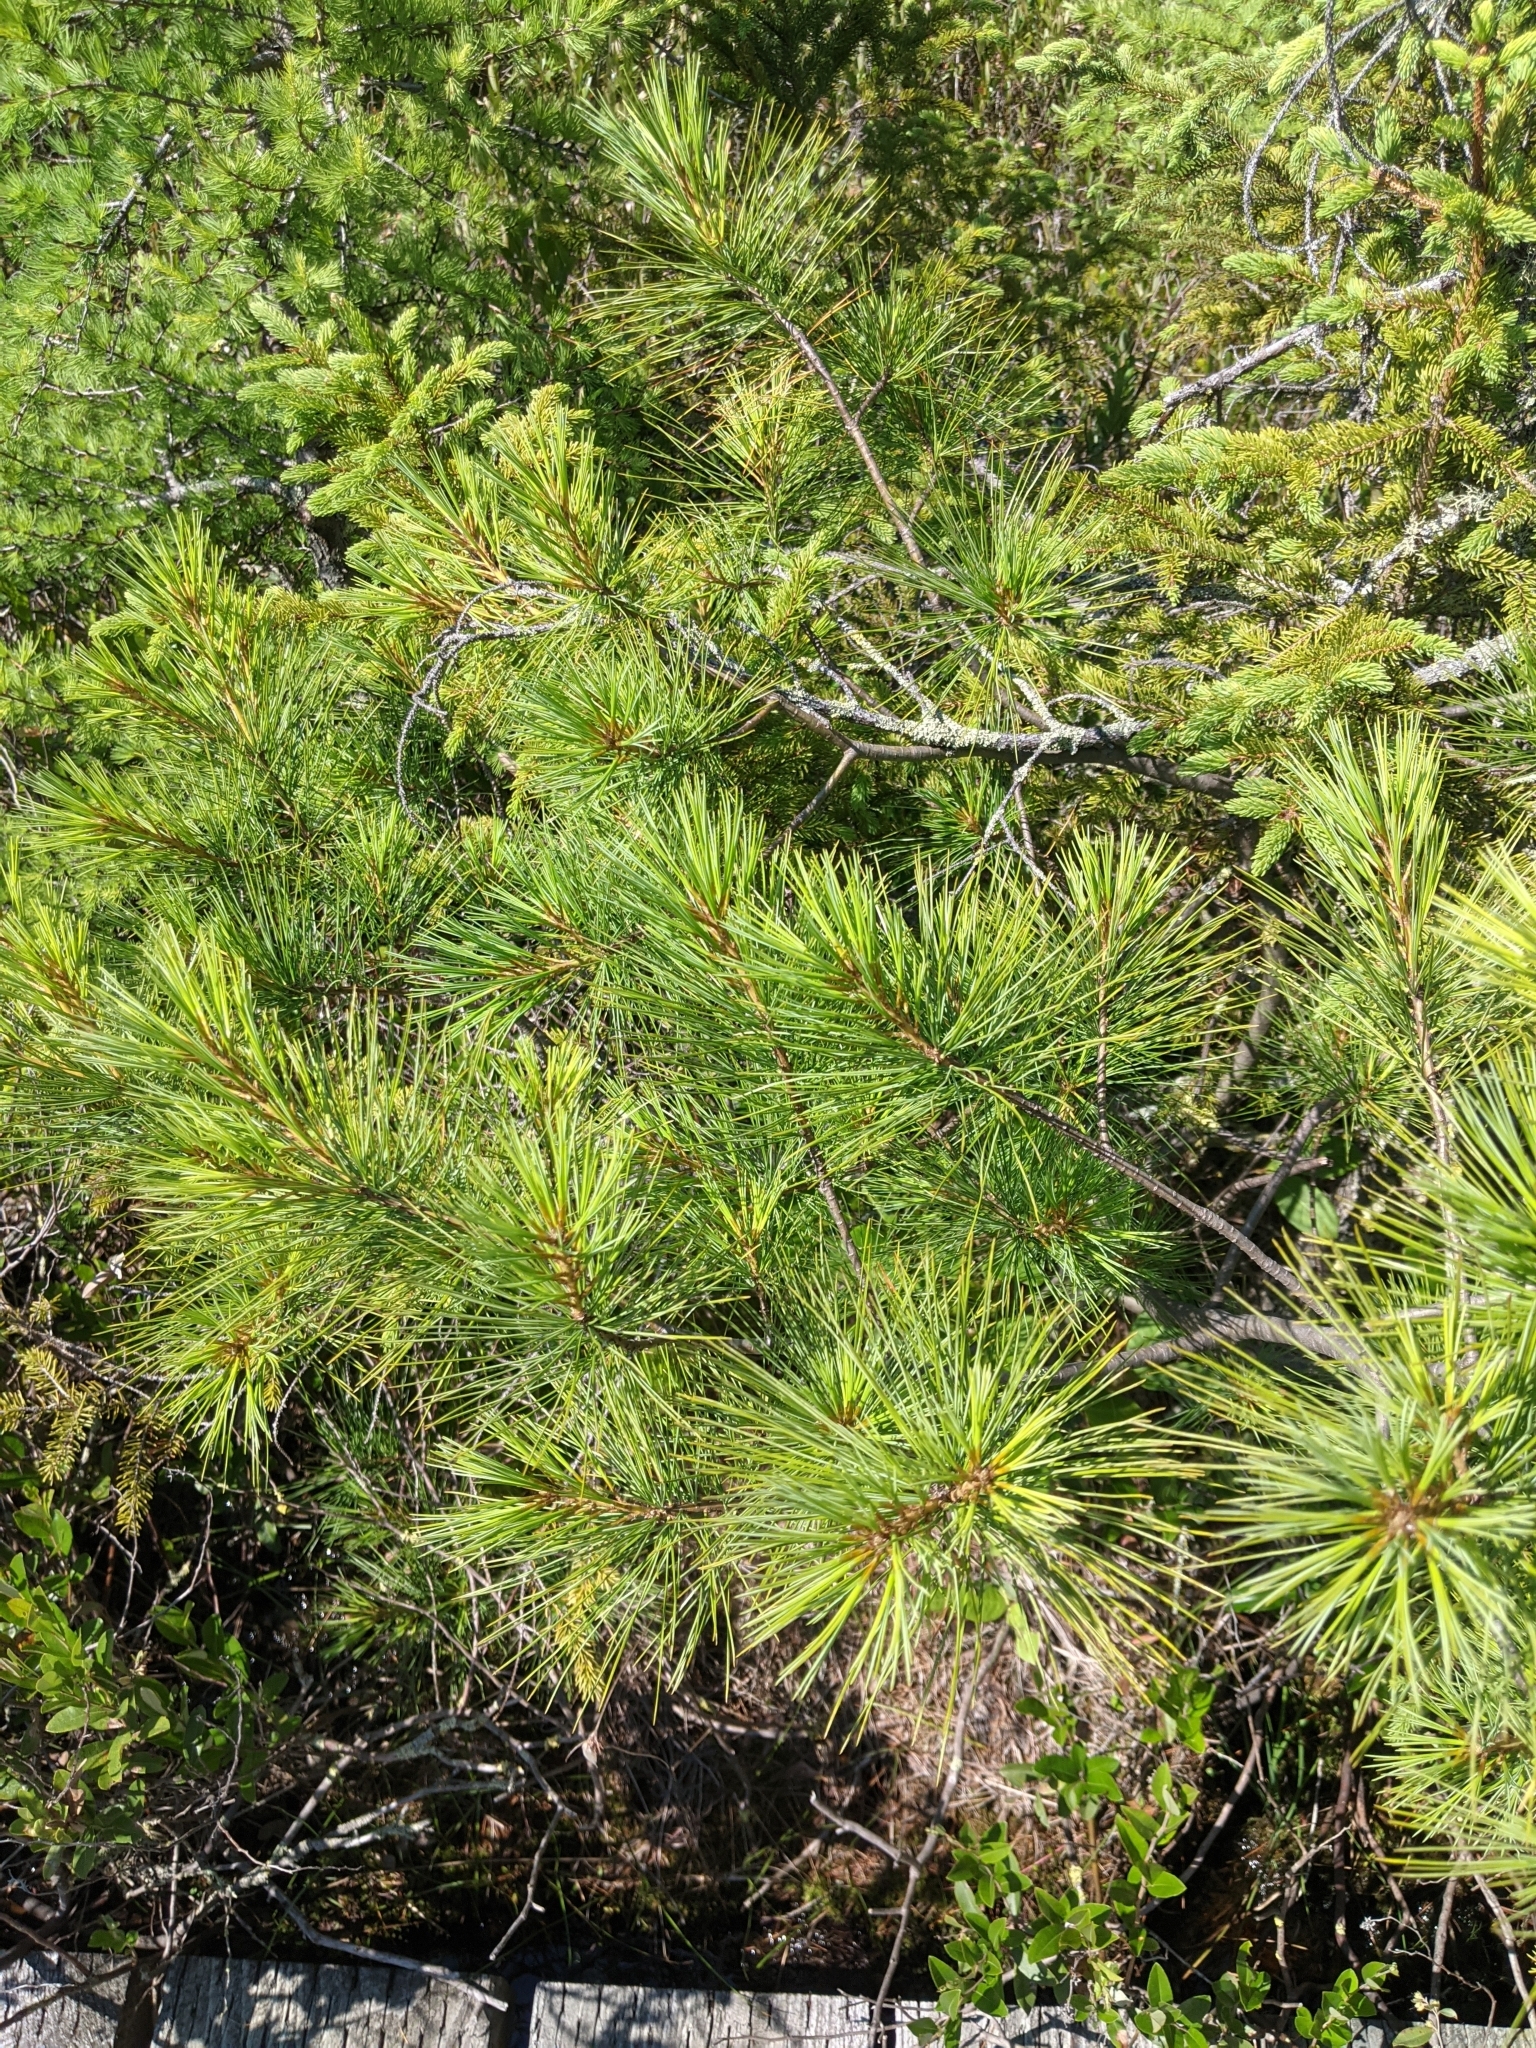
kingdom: Plantae
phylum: Tracheophyta
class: Pinopsida
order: Pinales
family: Pinaceae
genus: Pinus
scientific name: Pinus strobus
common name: Weymouth pine
